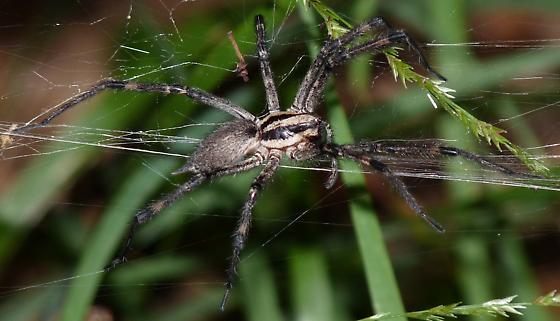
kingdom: Animalia
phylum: Arthropoda
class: Arachnida
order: Araneae
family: Agelenidae
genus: Agelenopsis
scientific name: Agelenopsis naevia
